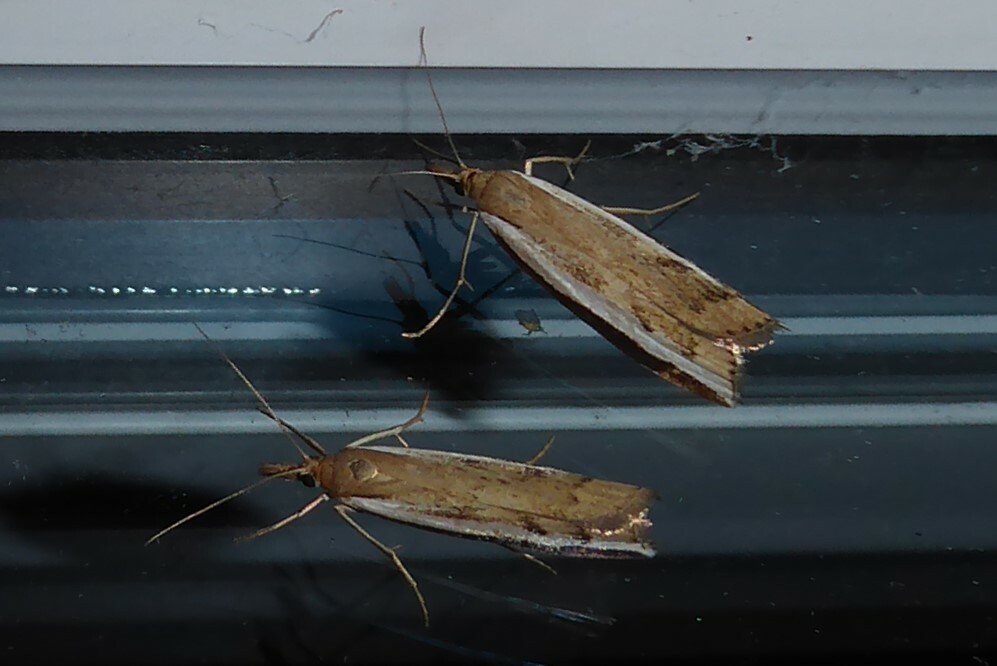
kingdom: Animalia
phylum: Arthropoda
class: Insecta
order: Lepidoptera
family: Crambidae
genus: Orocrambus
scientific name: Orocrambus flexuosellus
